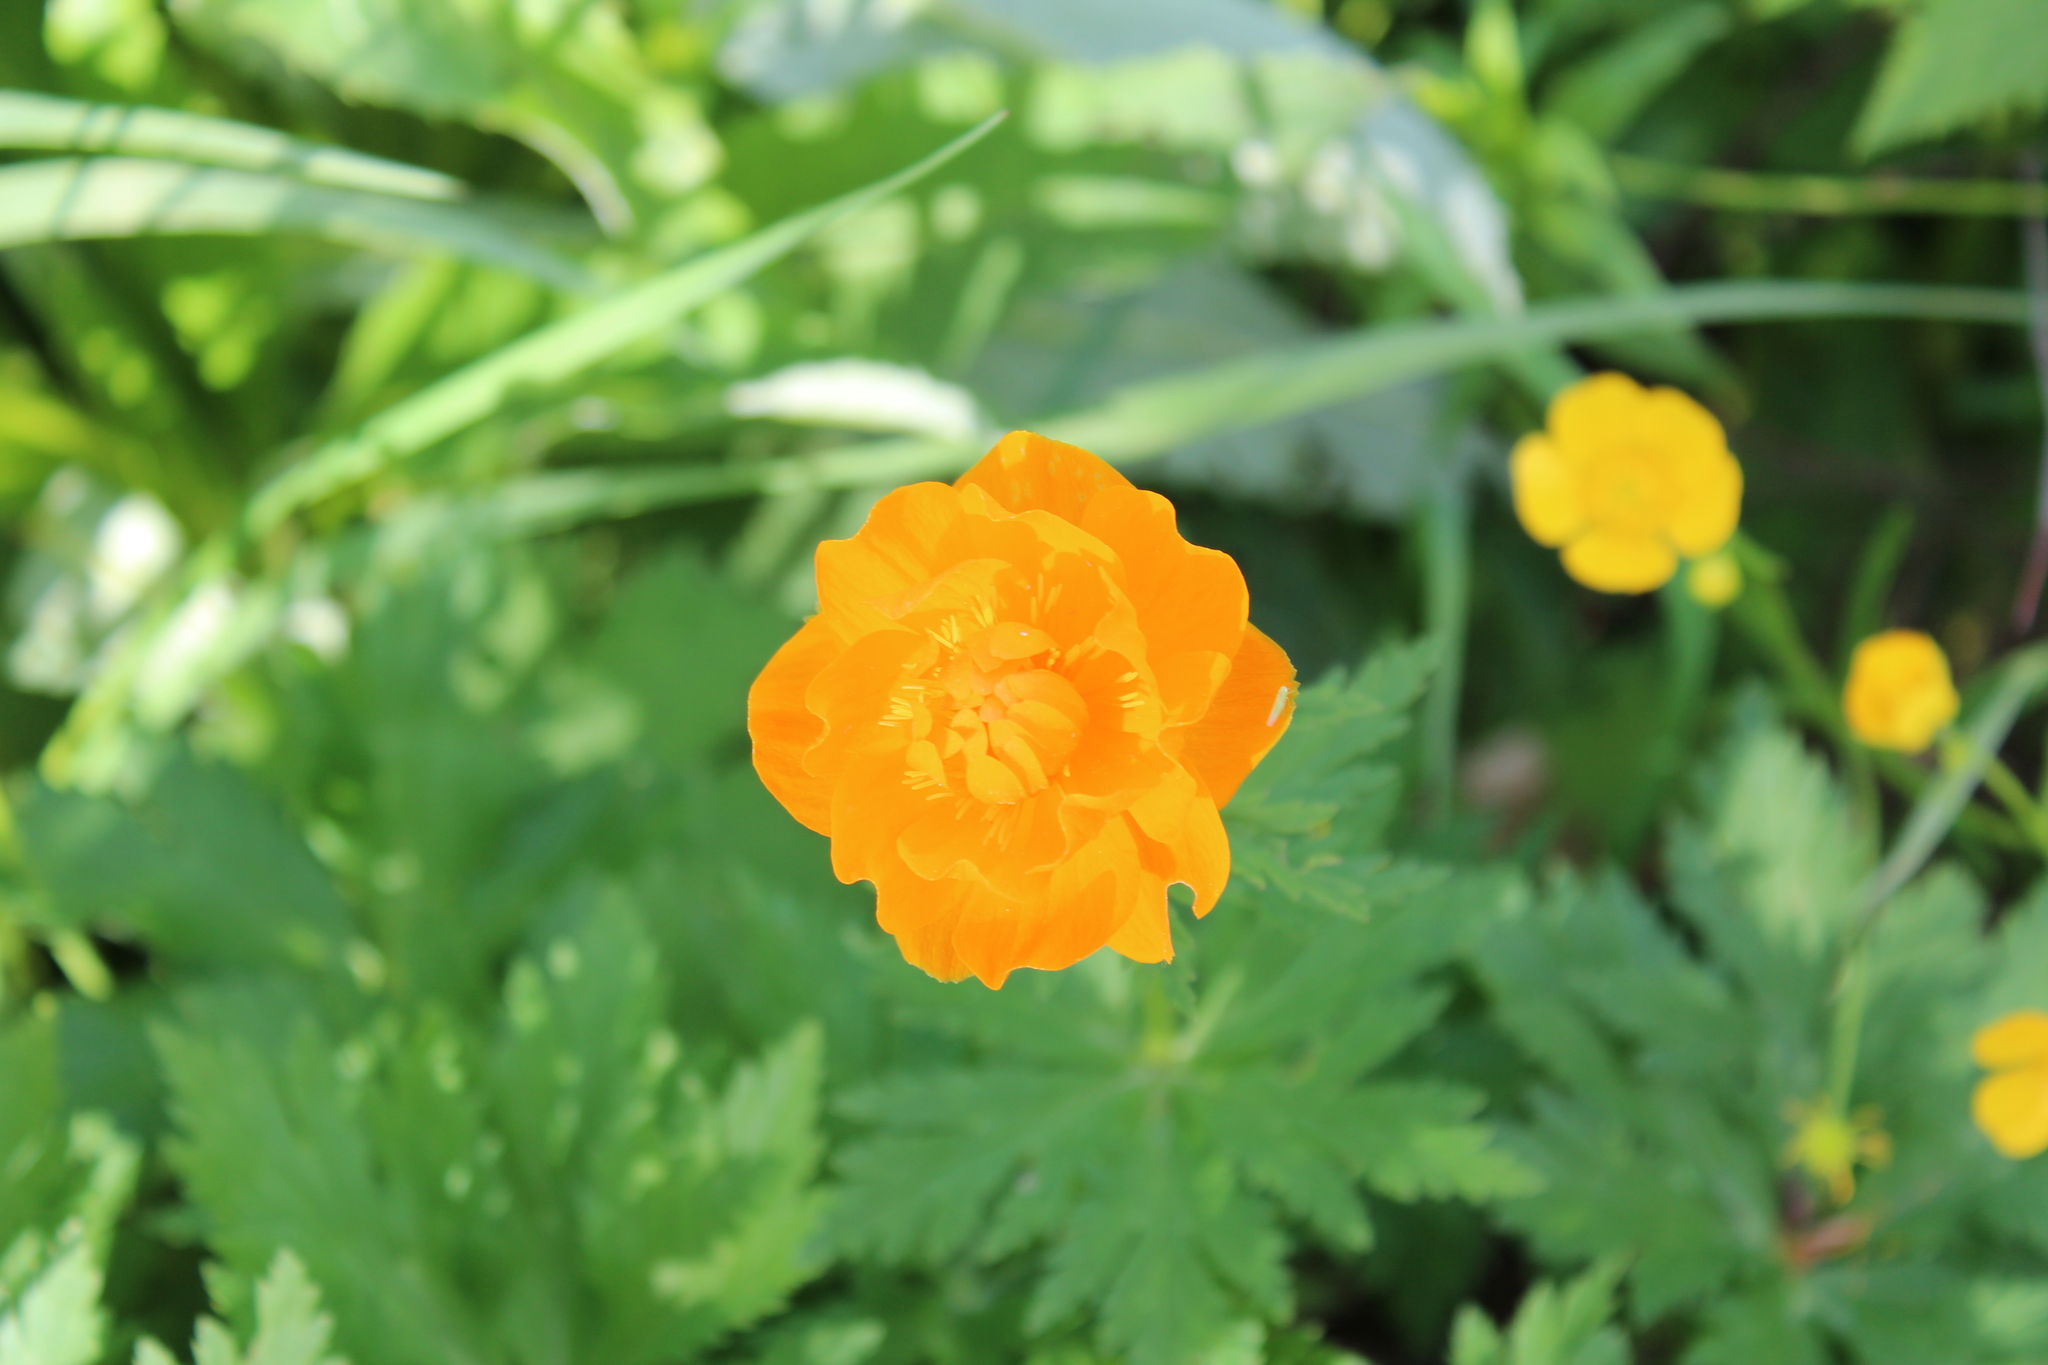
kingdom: Plantae
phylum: Tracheophyta
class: Magnoliopsida
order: Ranunculales
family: Ranunculaceae
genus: Trollius
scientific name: Trollius asiaticus
